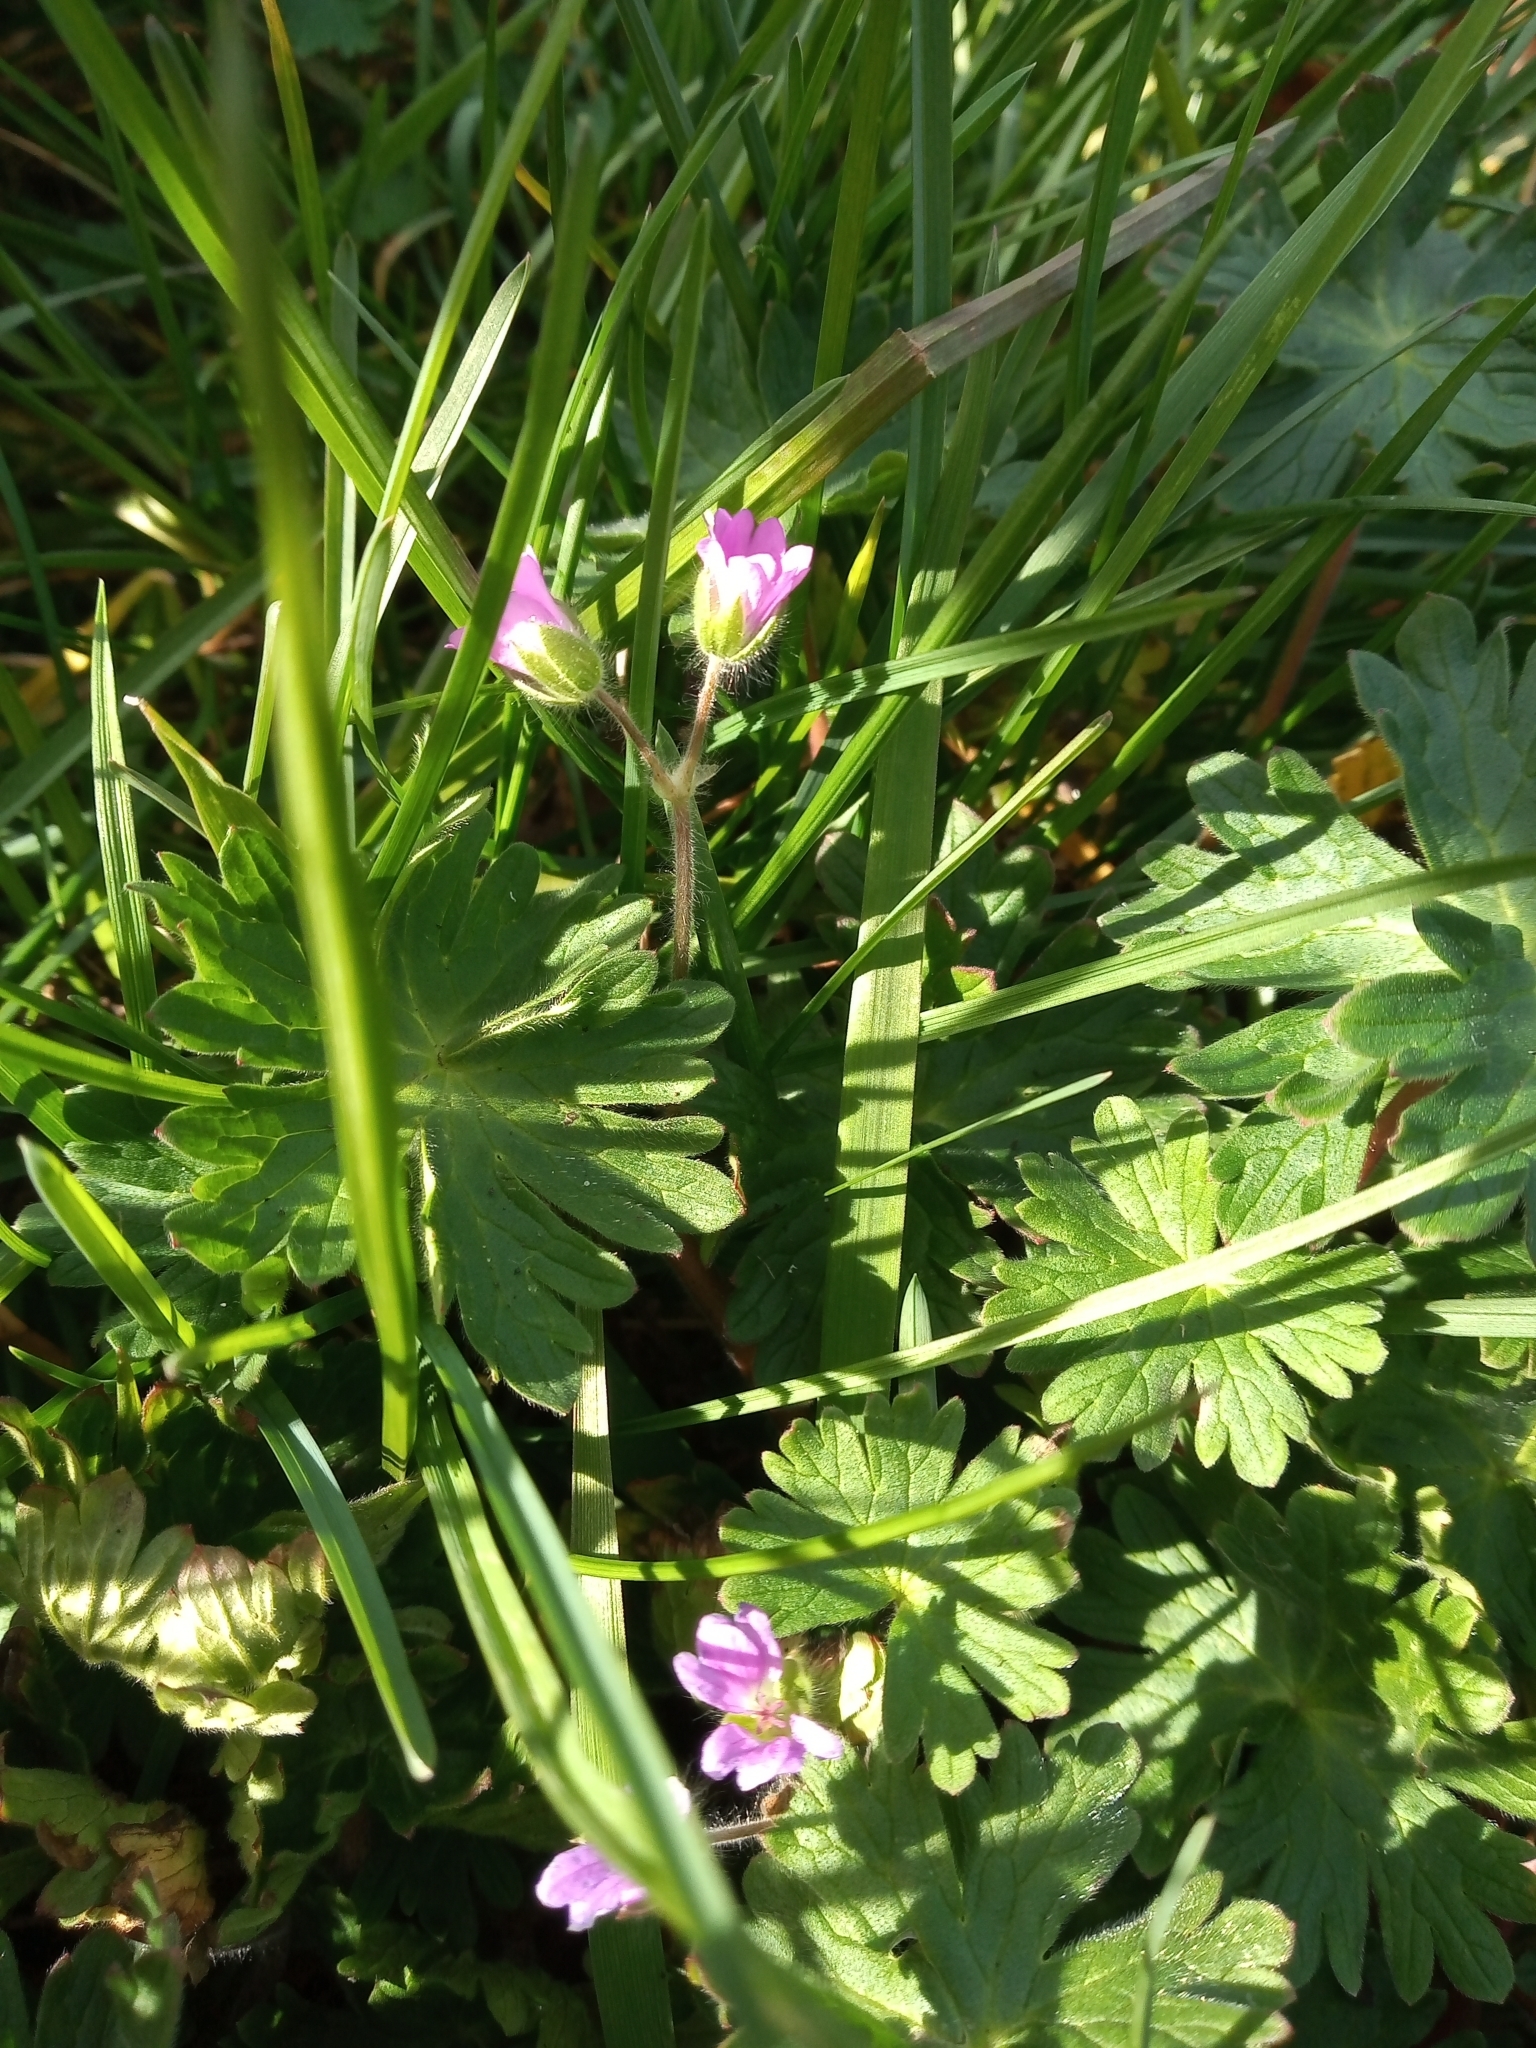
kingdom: Plantae
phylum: Tracheophyta
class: Magnoliopsida
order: Geraniales
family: Geraniaceae
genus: Geranium
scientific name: Geranium molle
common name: Dove's-foot crane's-bill
